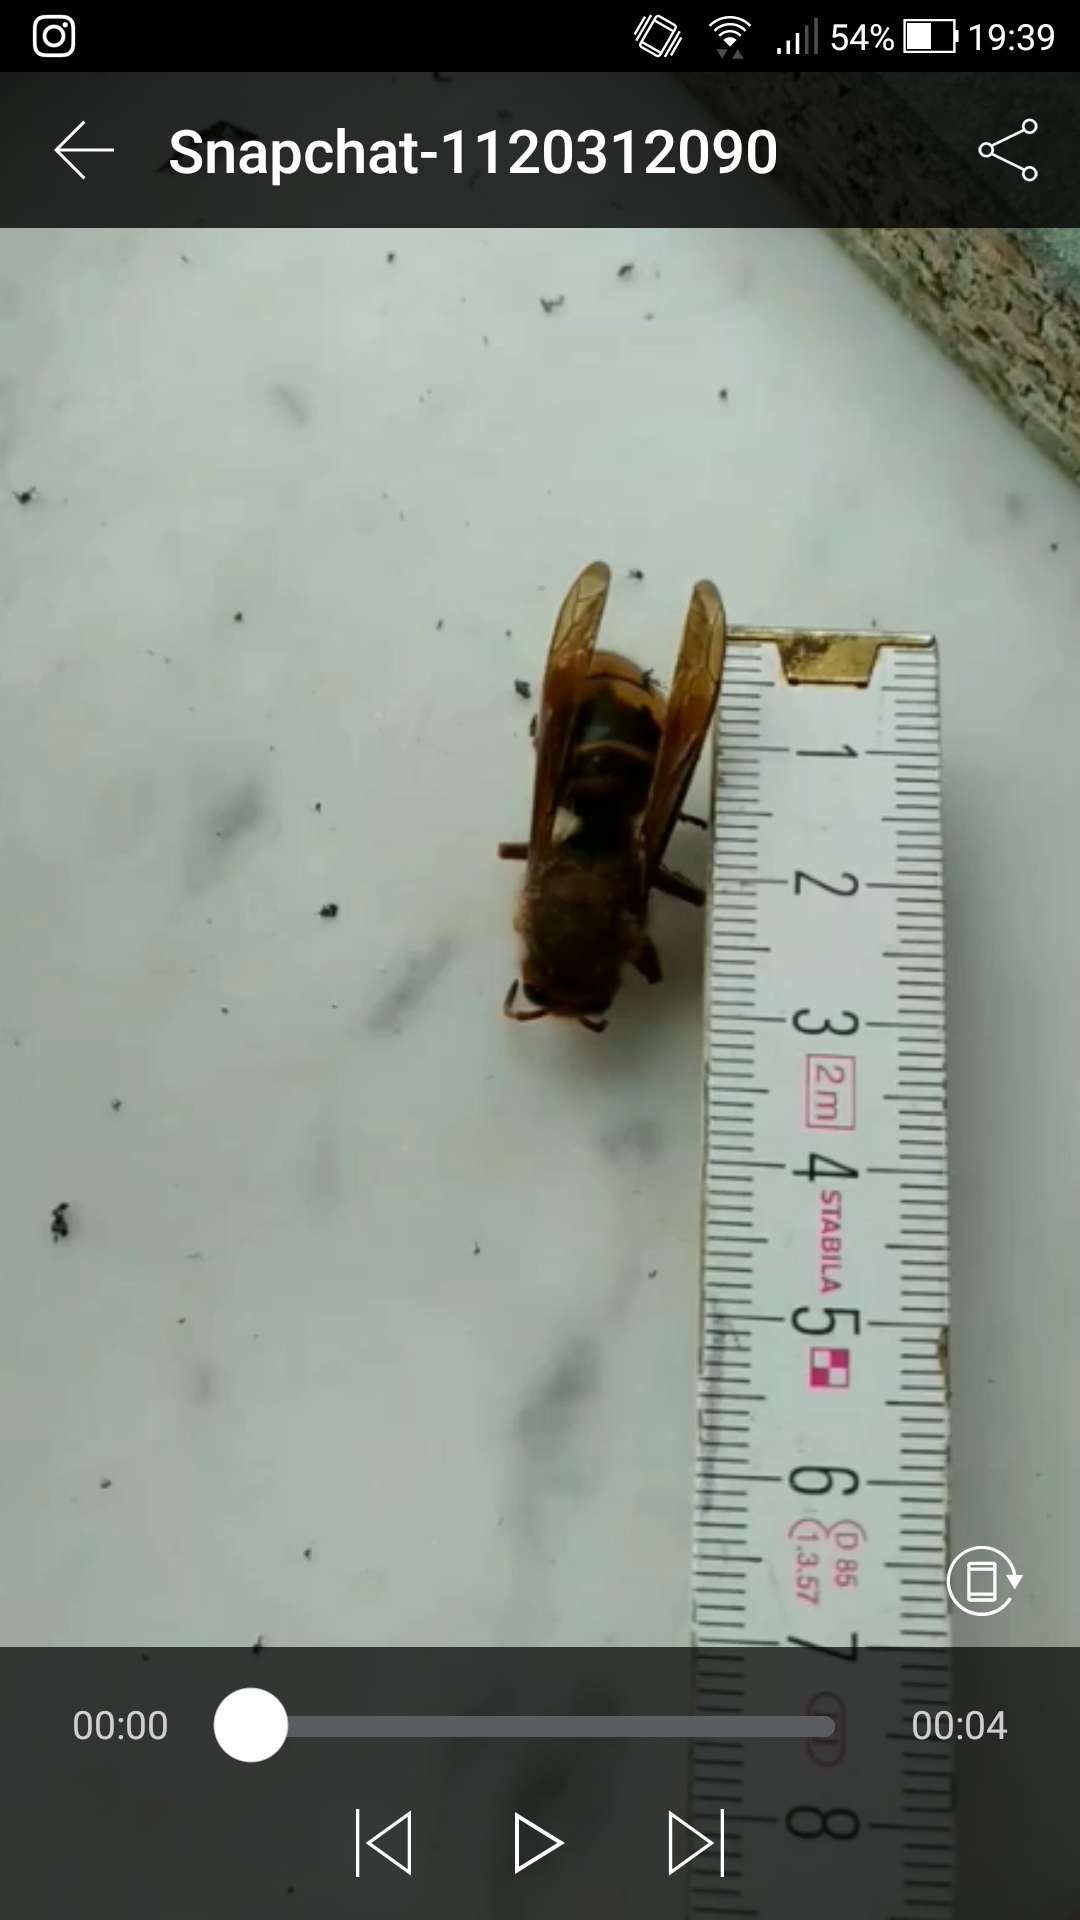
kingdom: Animalia
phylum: Arthropoda
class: Insecta
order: Hymenoptera
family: Vespidae
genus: Vespa
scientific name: Vespa crabro
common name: Hornet
